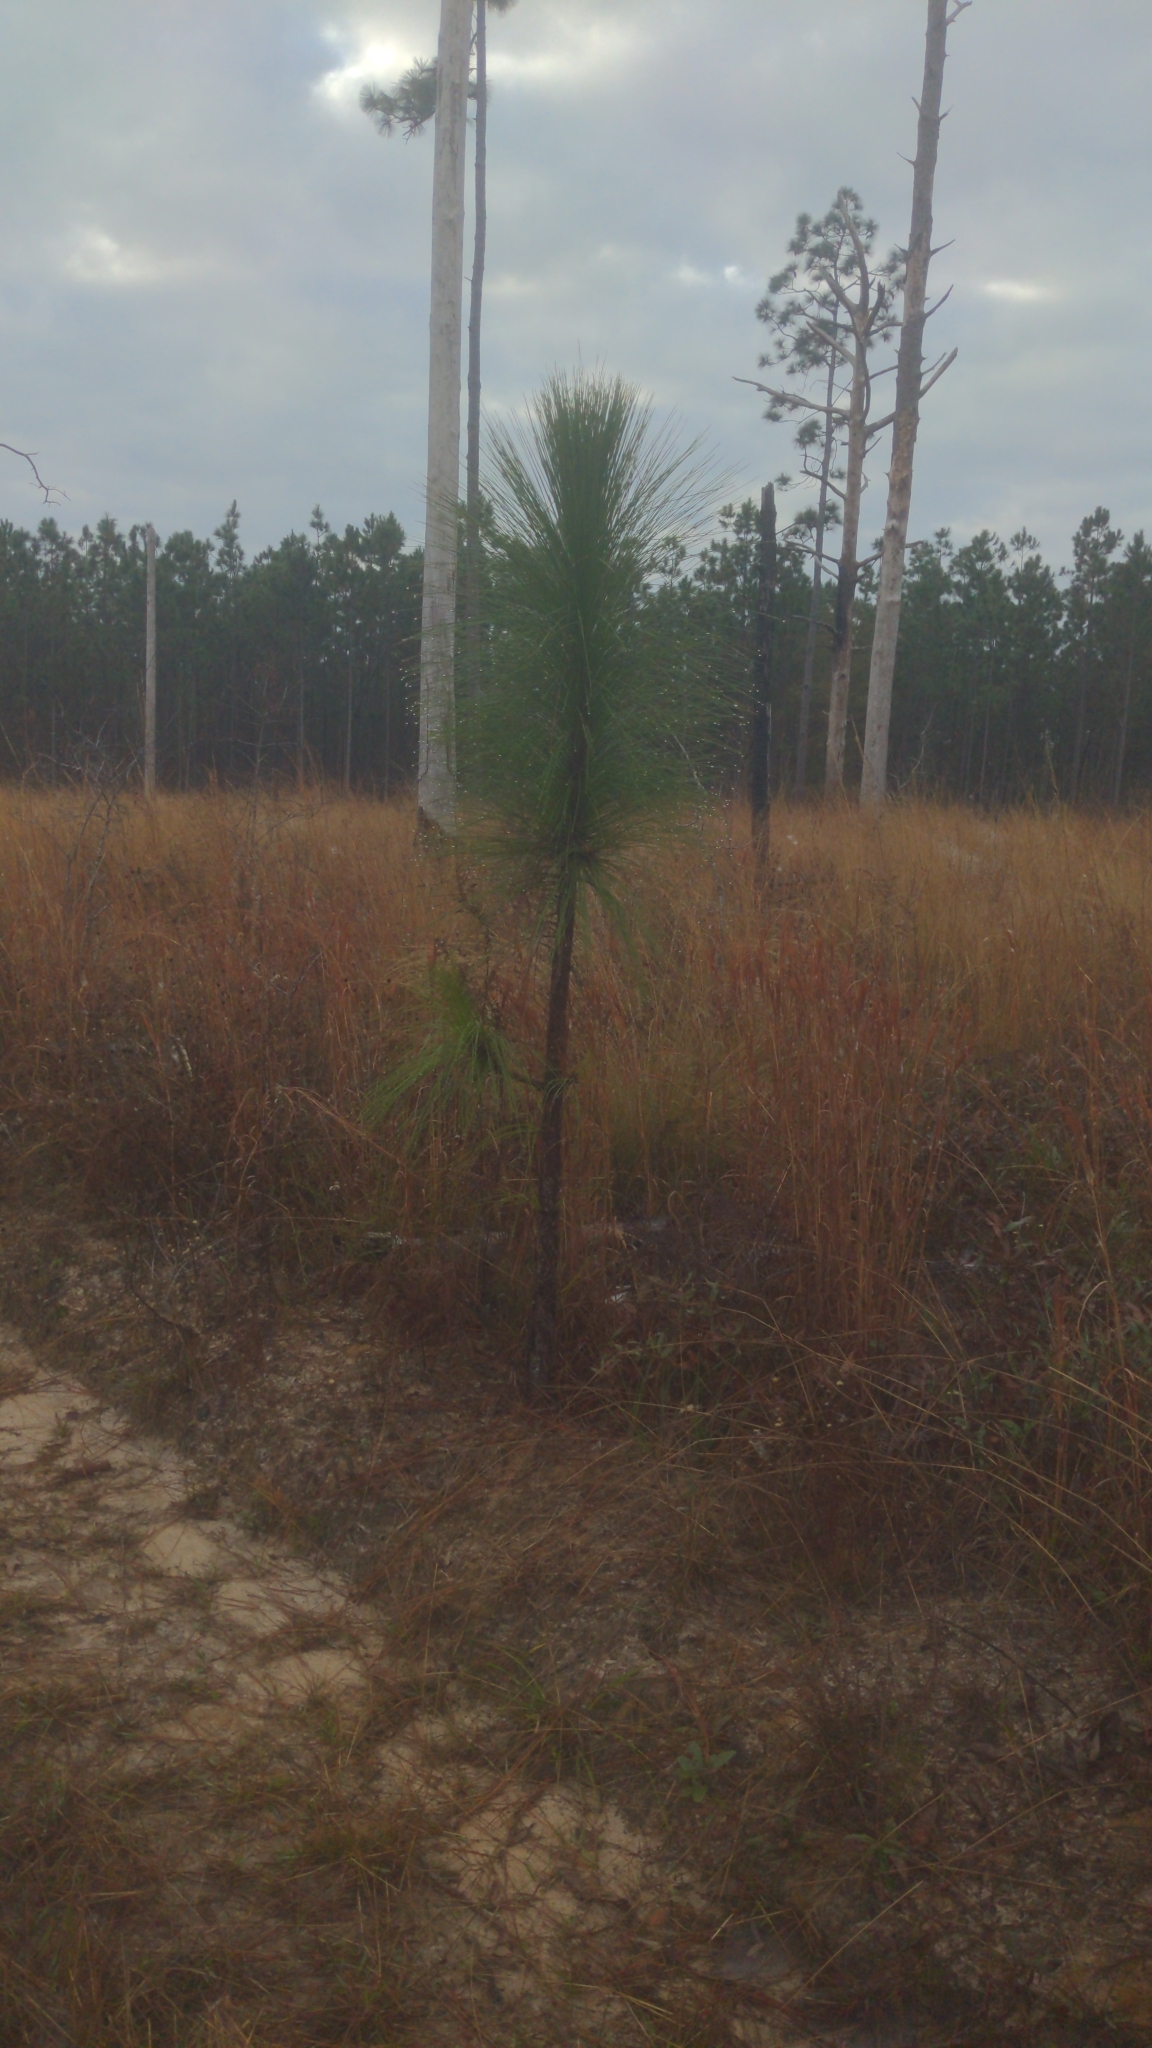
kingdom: Plantae
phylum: Tracheophyta
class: Pinopsida
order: Pinales
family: Pinaceae
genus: Pinus
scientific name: Pinus palustris
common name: Longleaf pine
